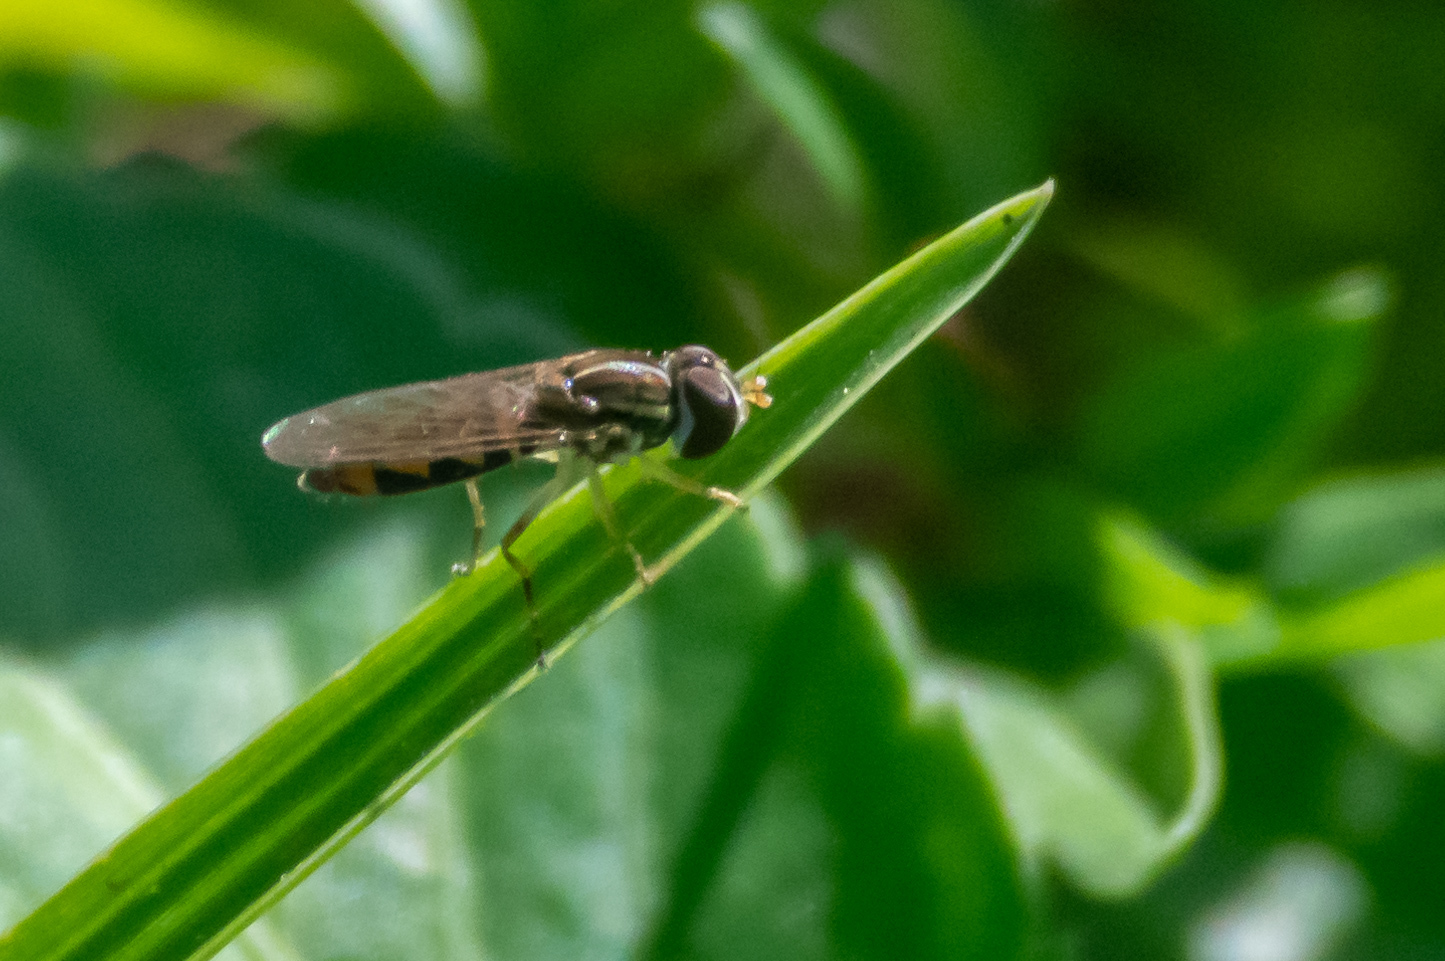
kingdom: Animalia
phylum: Arthropoda
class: Insecta
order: Diptera
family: Syrphidae
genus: Toxomerus
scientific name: Toxomerus floralis
